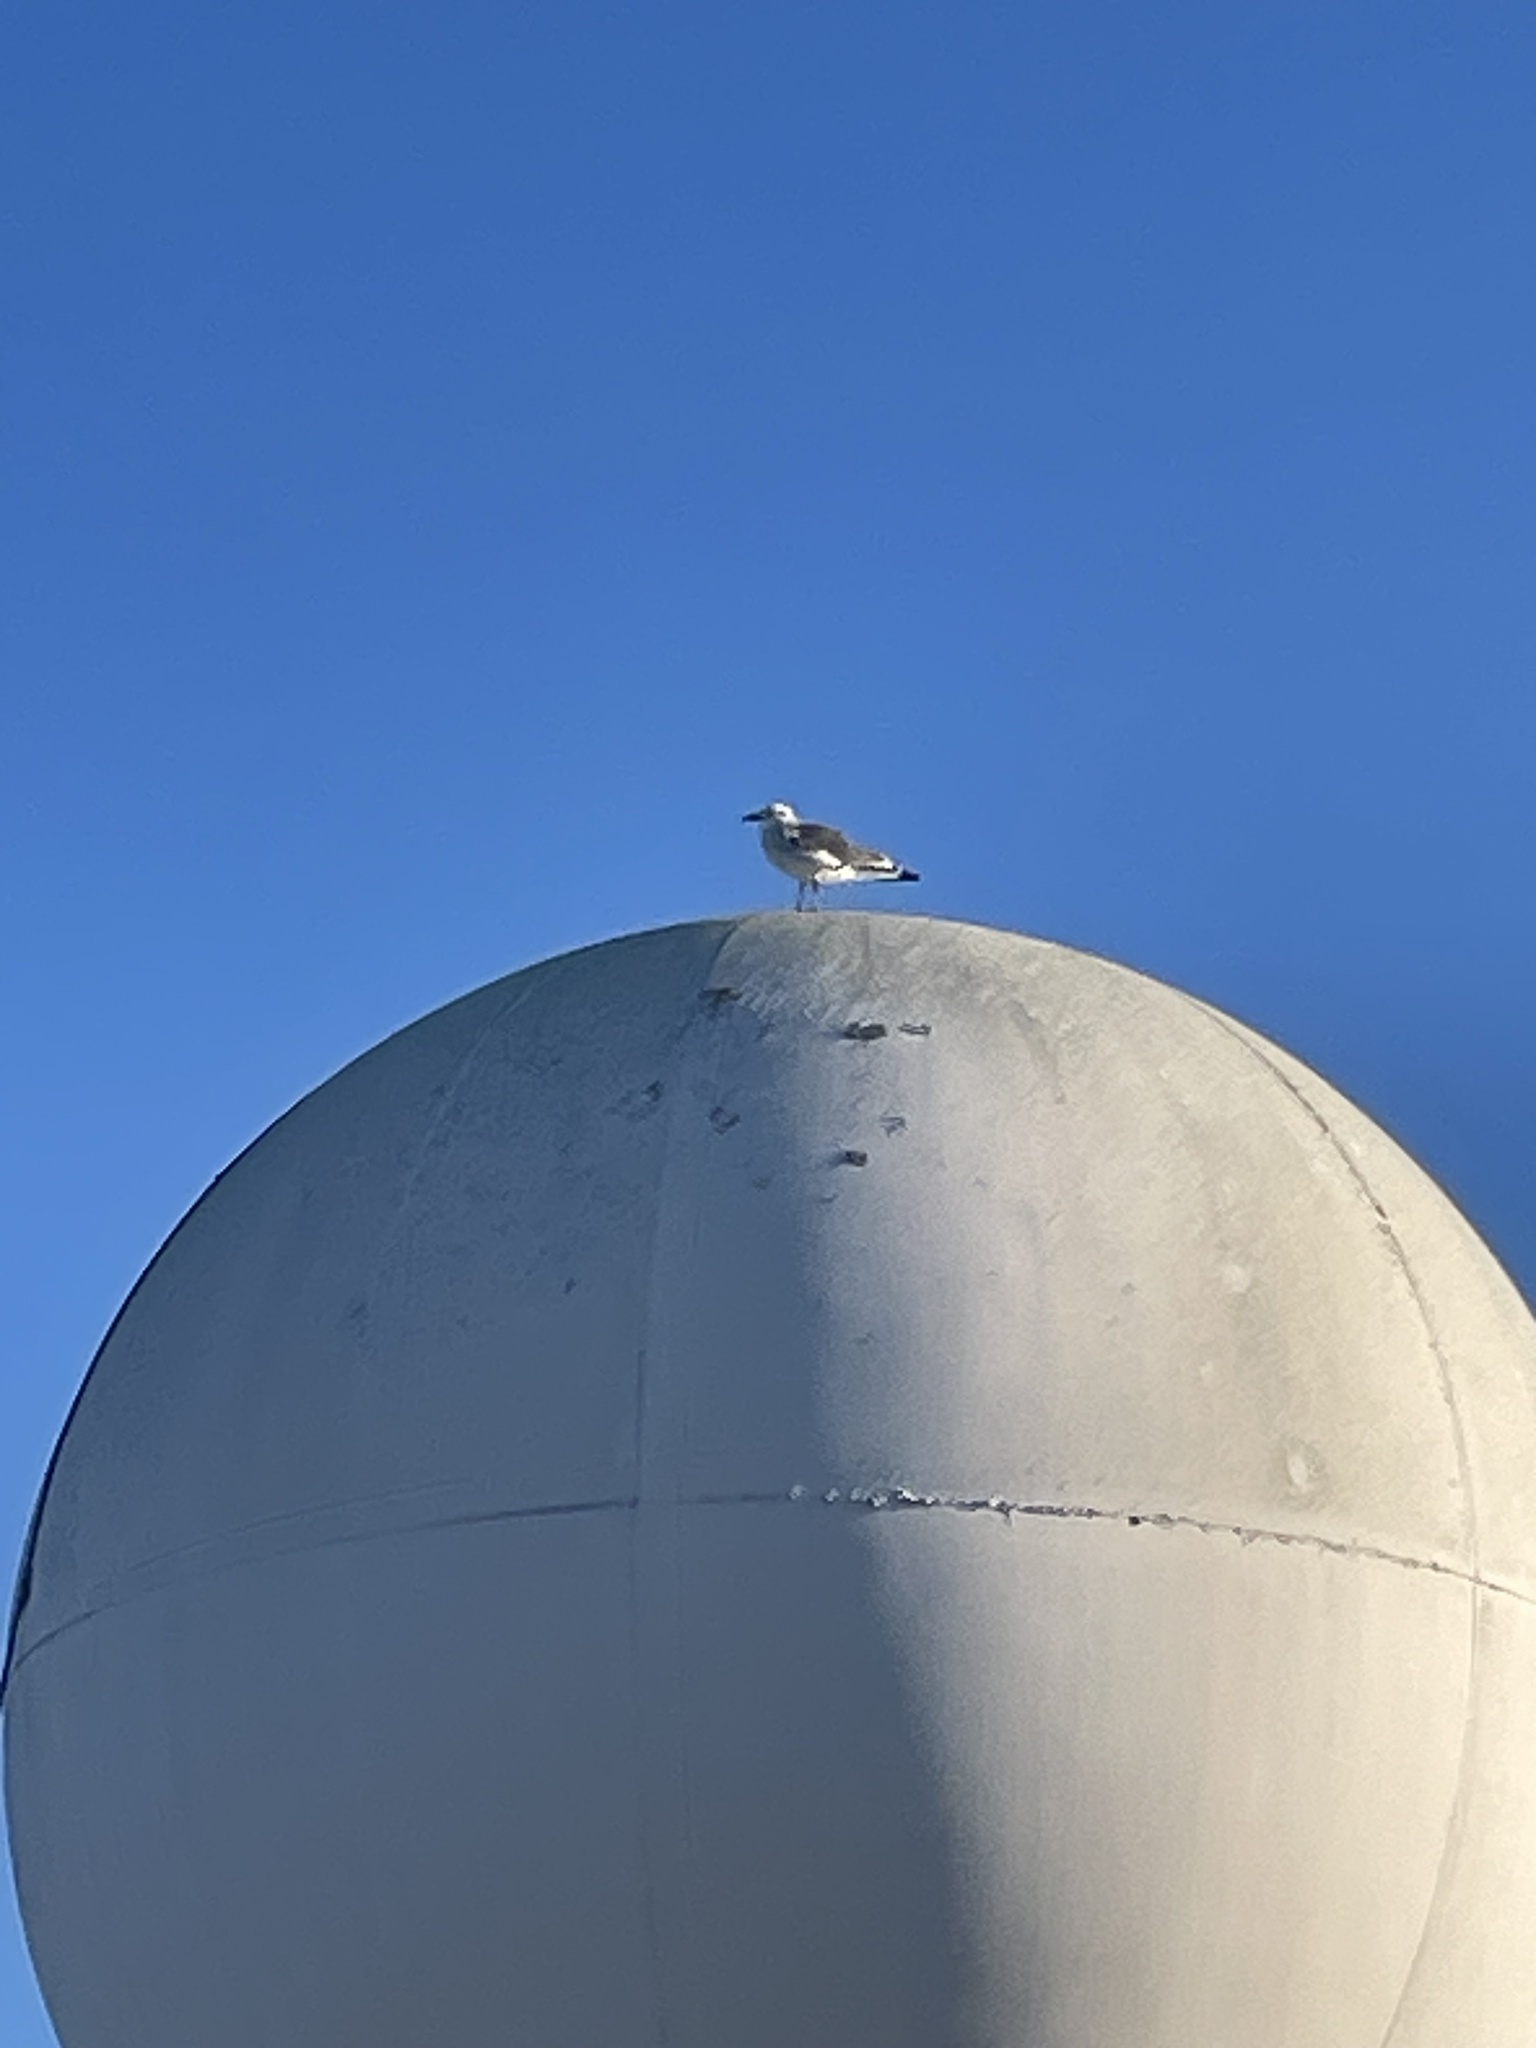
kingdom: Animalia
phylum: Chordata
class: Aves
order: Charadriiformes
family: Laridae
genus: Leucophaeus
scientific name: Leucophaeus atricilla
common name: Laughing gull
